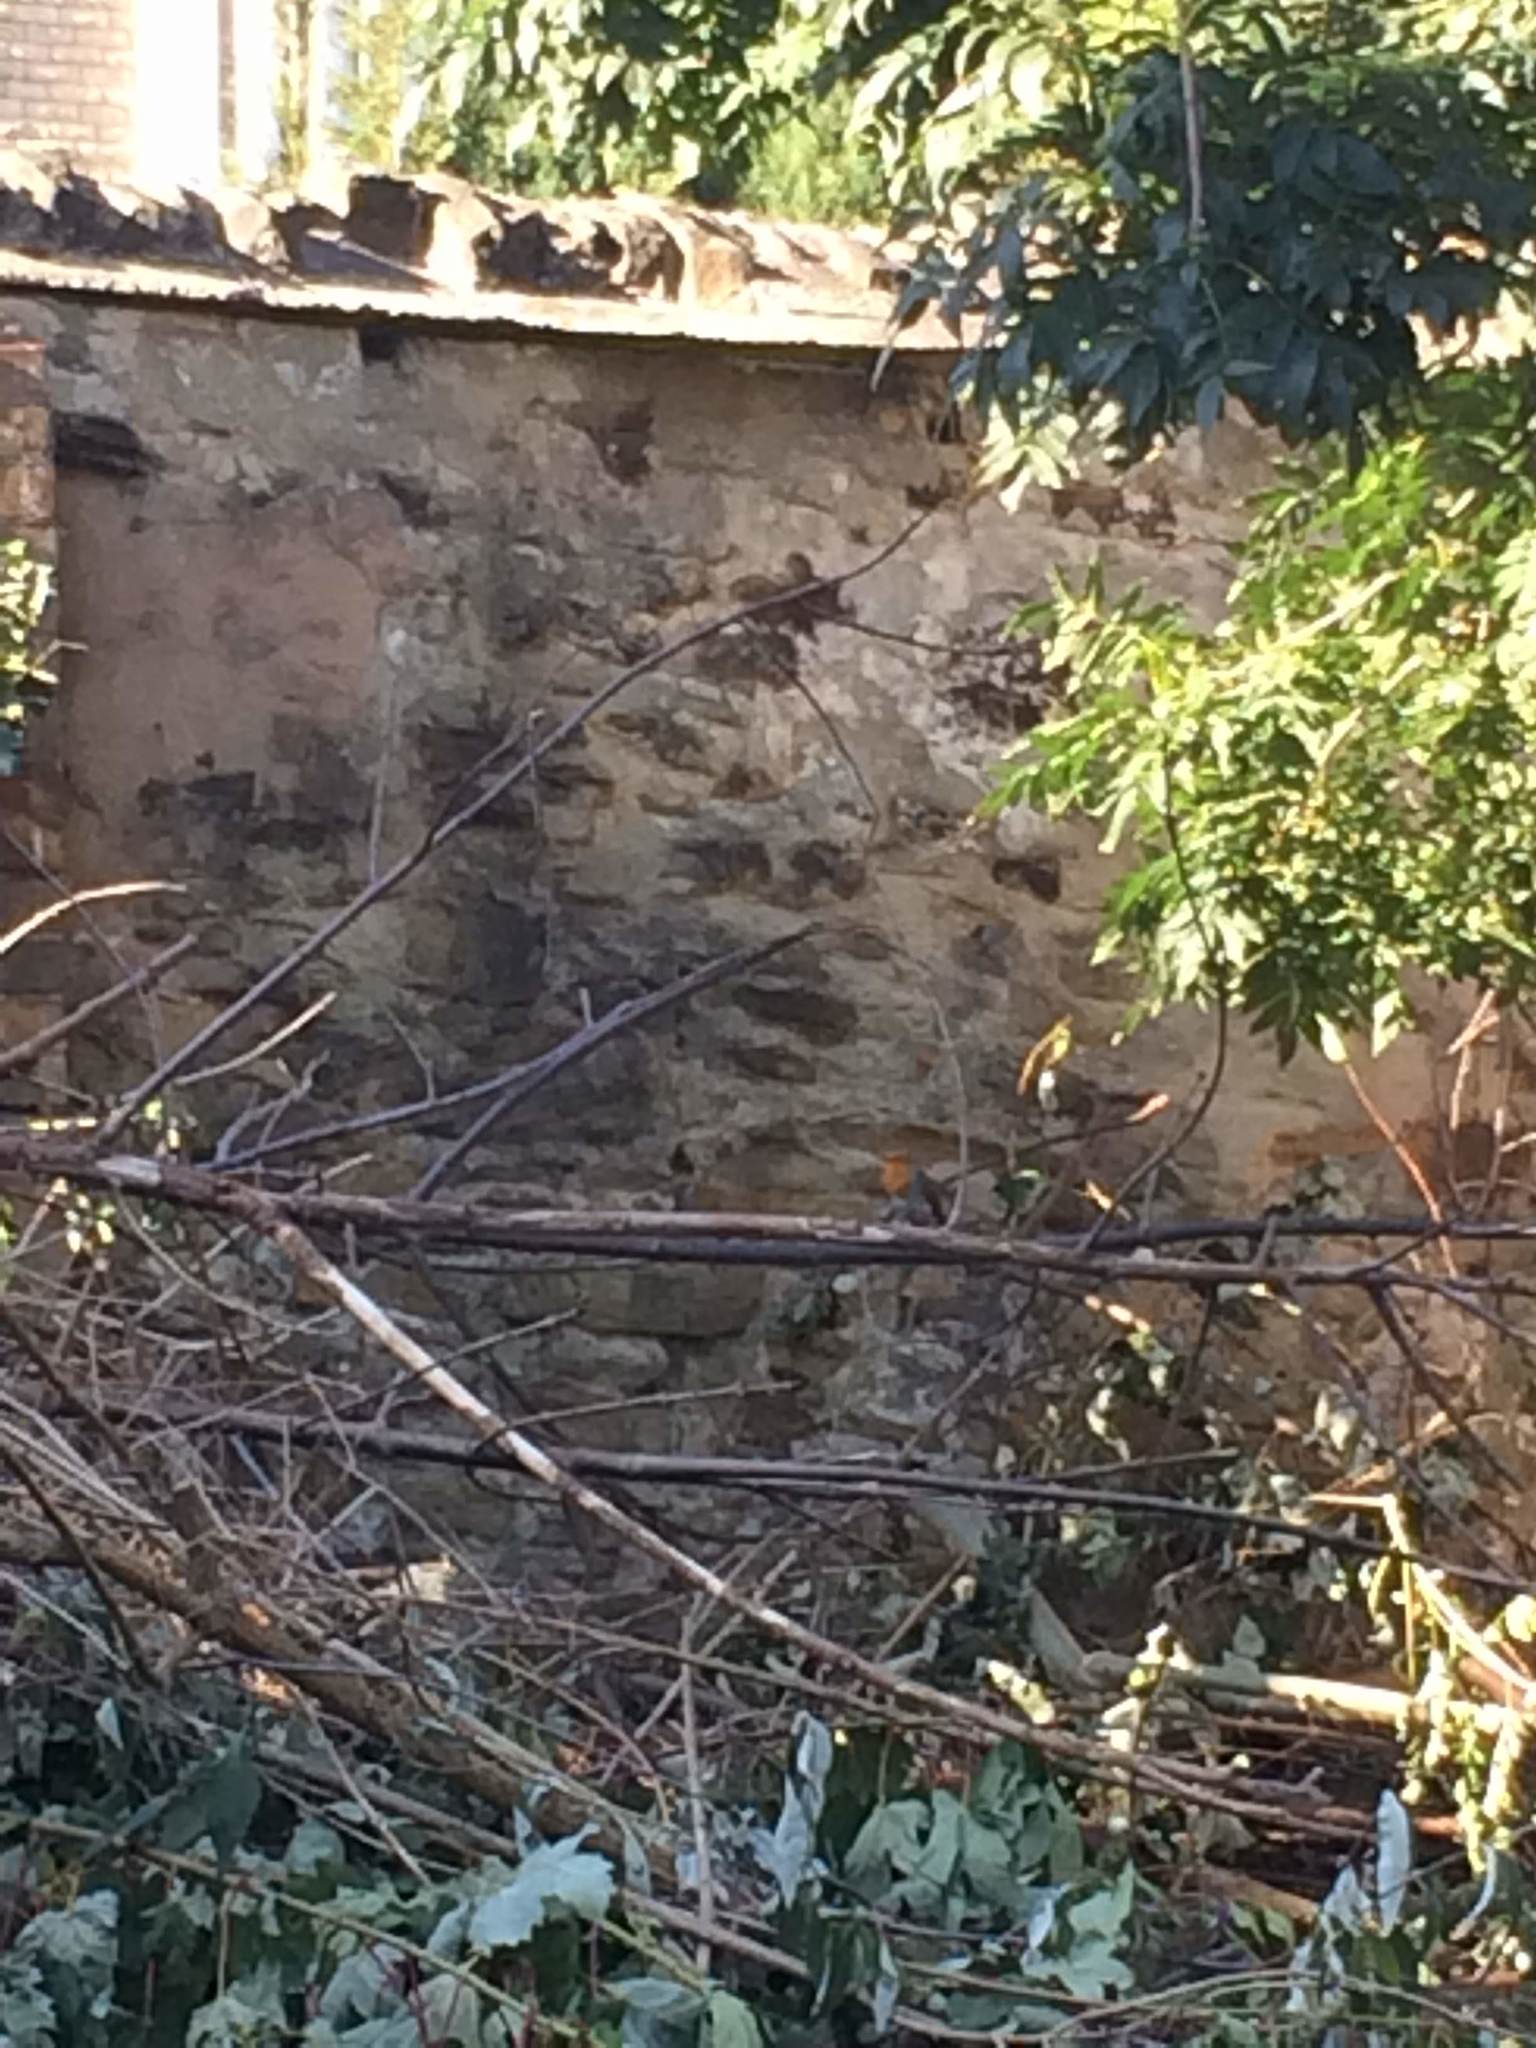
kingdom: Animalia
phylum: Chordata
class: Aves
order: Passeriformes
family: Muscicapidae
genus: Erithacus
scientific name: Erithacus rubecula
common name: European robin
